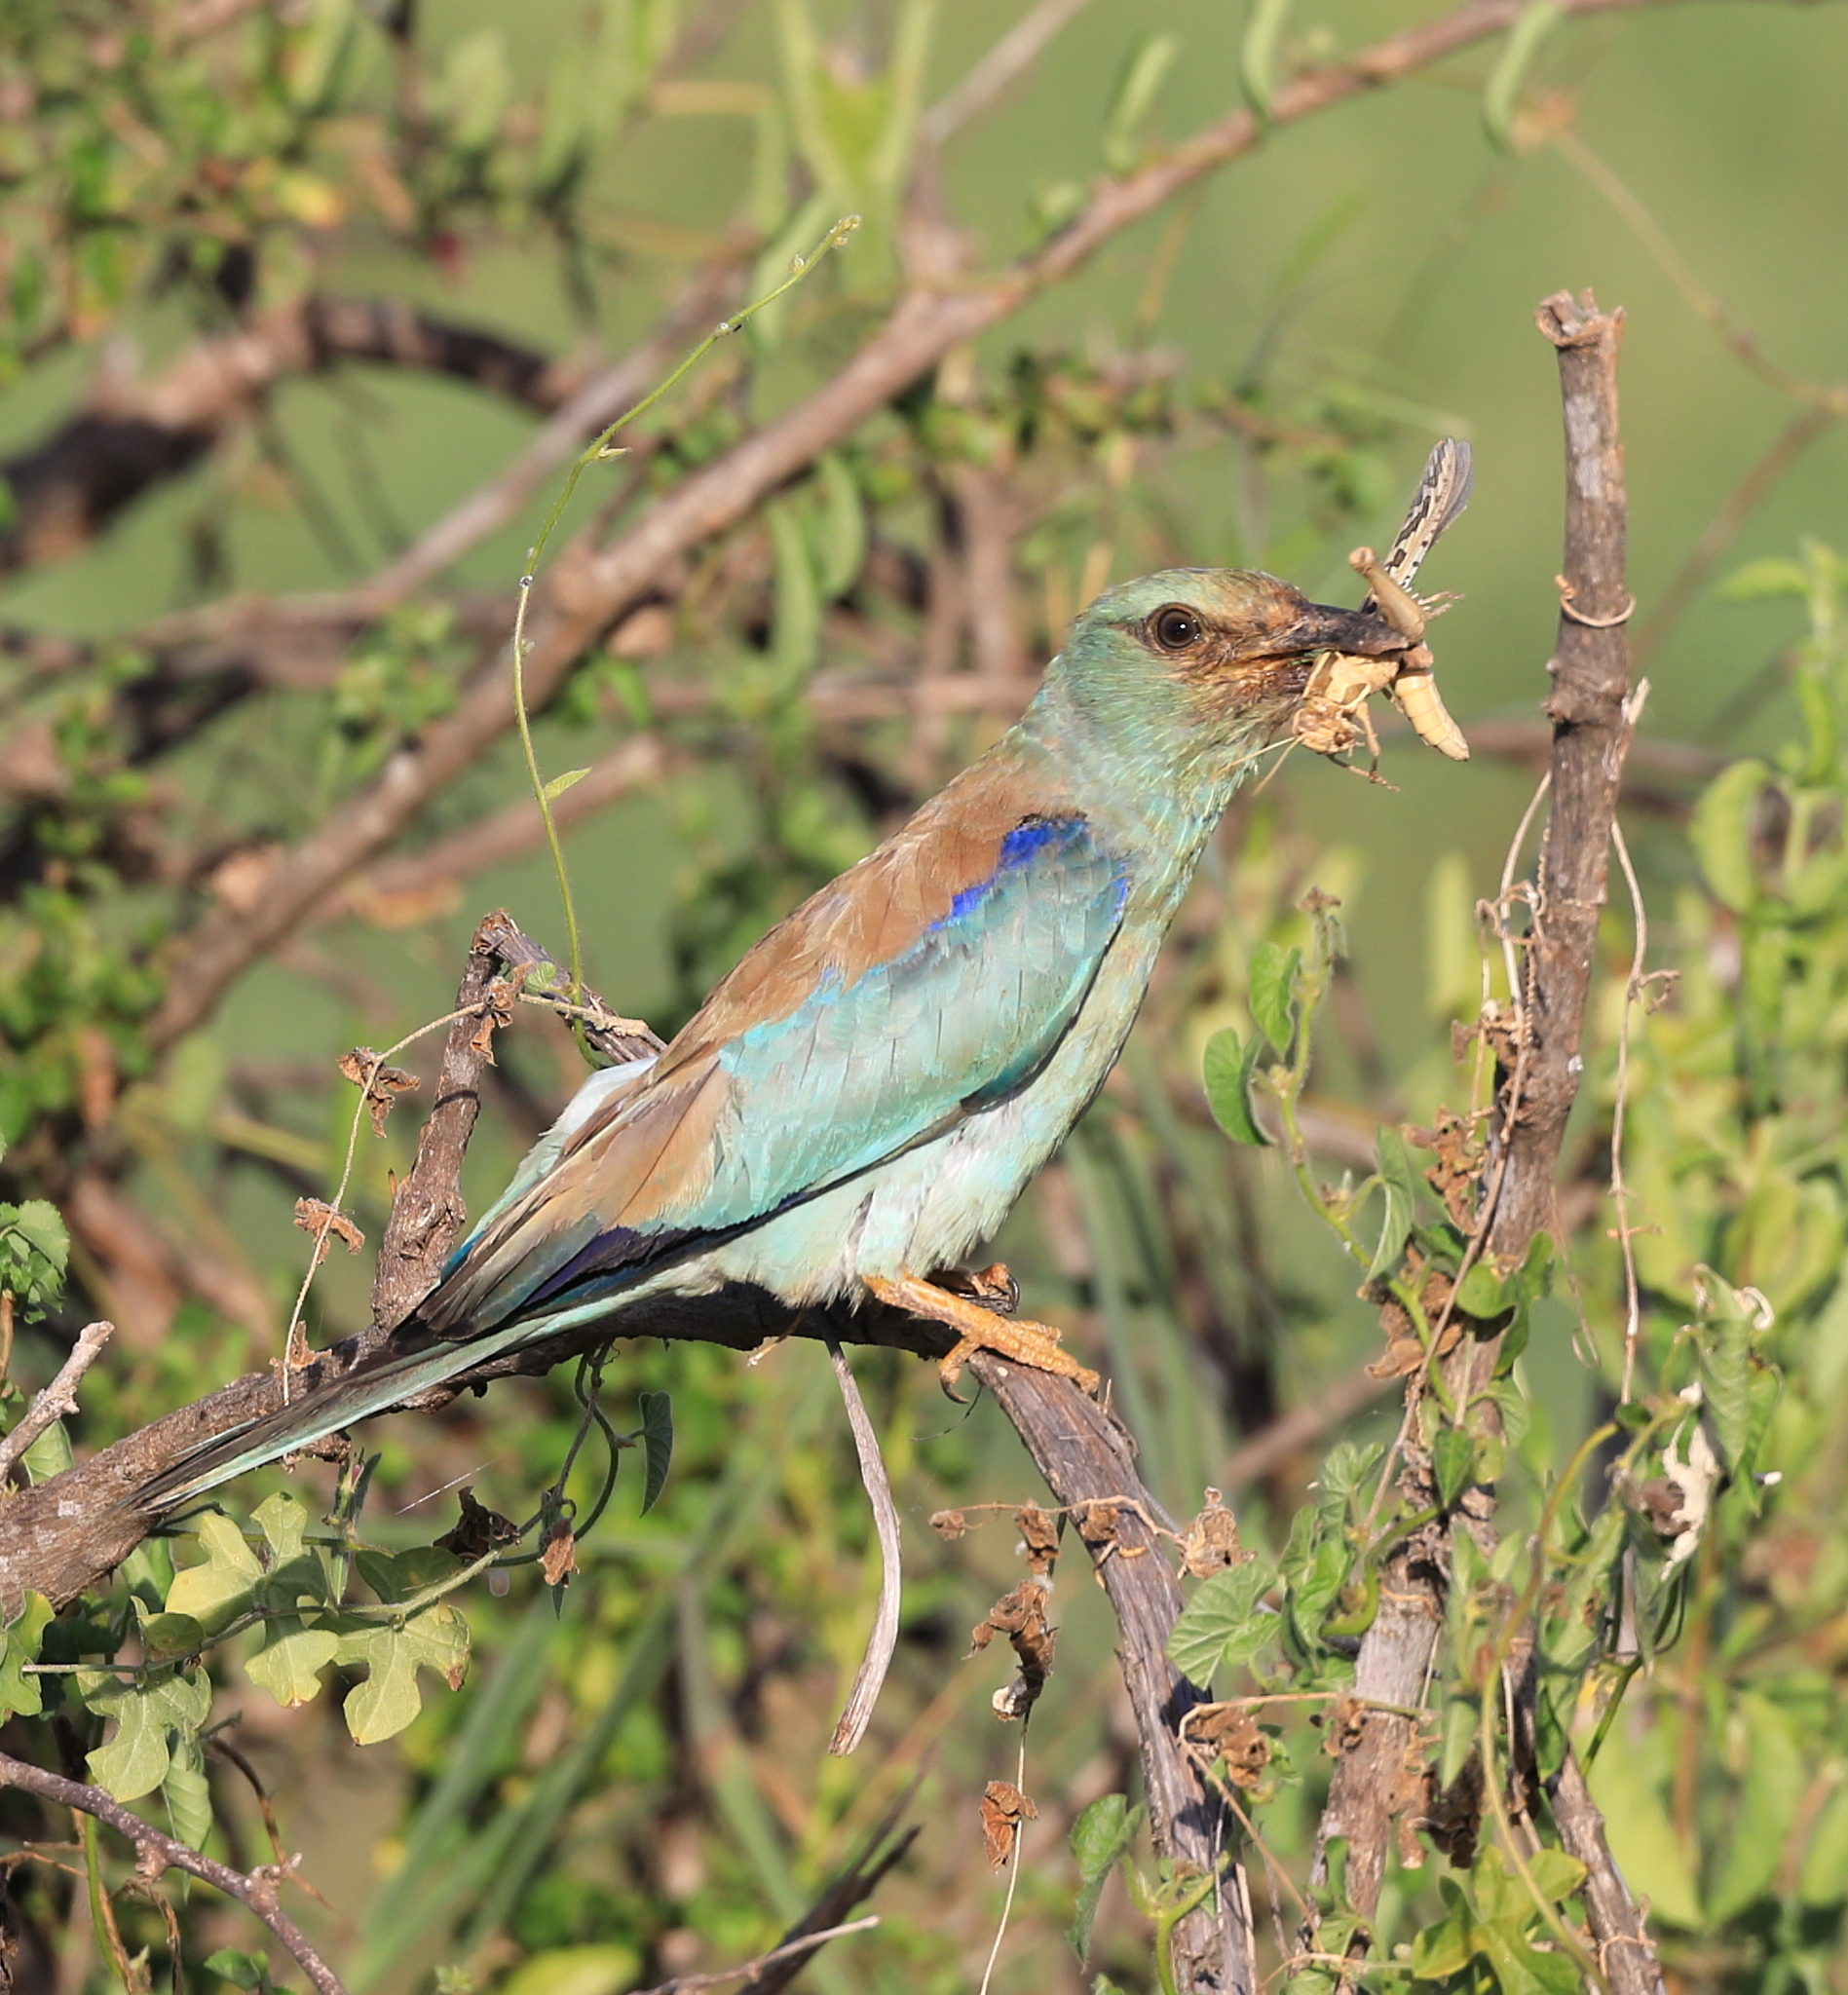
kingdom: Animalia
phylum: Chordata
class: Aves
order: Coraciiformes
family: Coraciidae
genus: Coracias
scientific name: Coracias garrulus
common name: European roller
